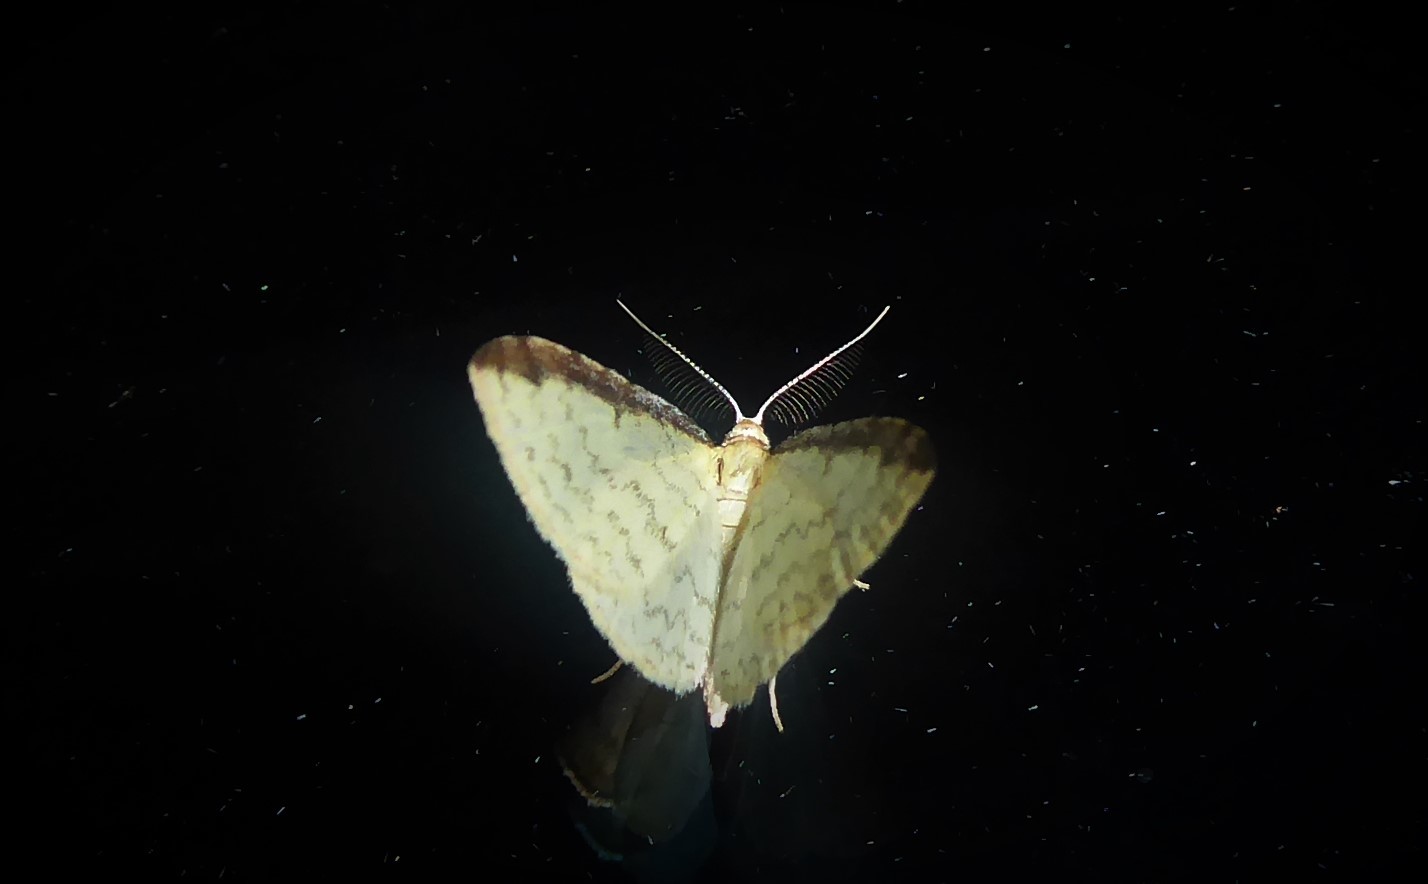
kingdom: Animalia
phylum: Arthropoda
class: Insecta
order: Lepidoptera
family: Geometridae
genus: Epiphryne
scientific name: Epiphryne undosata
